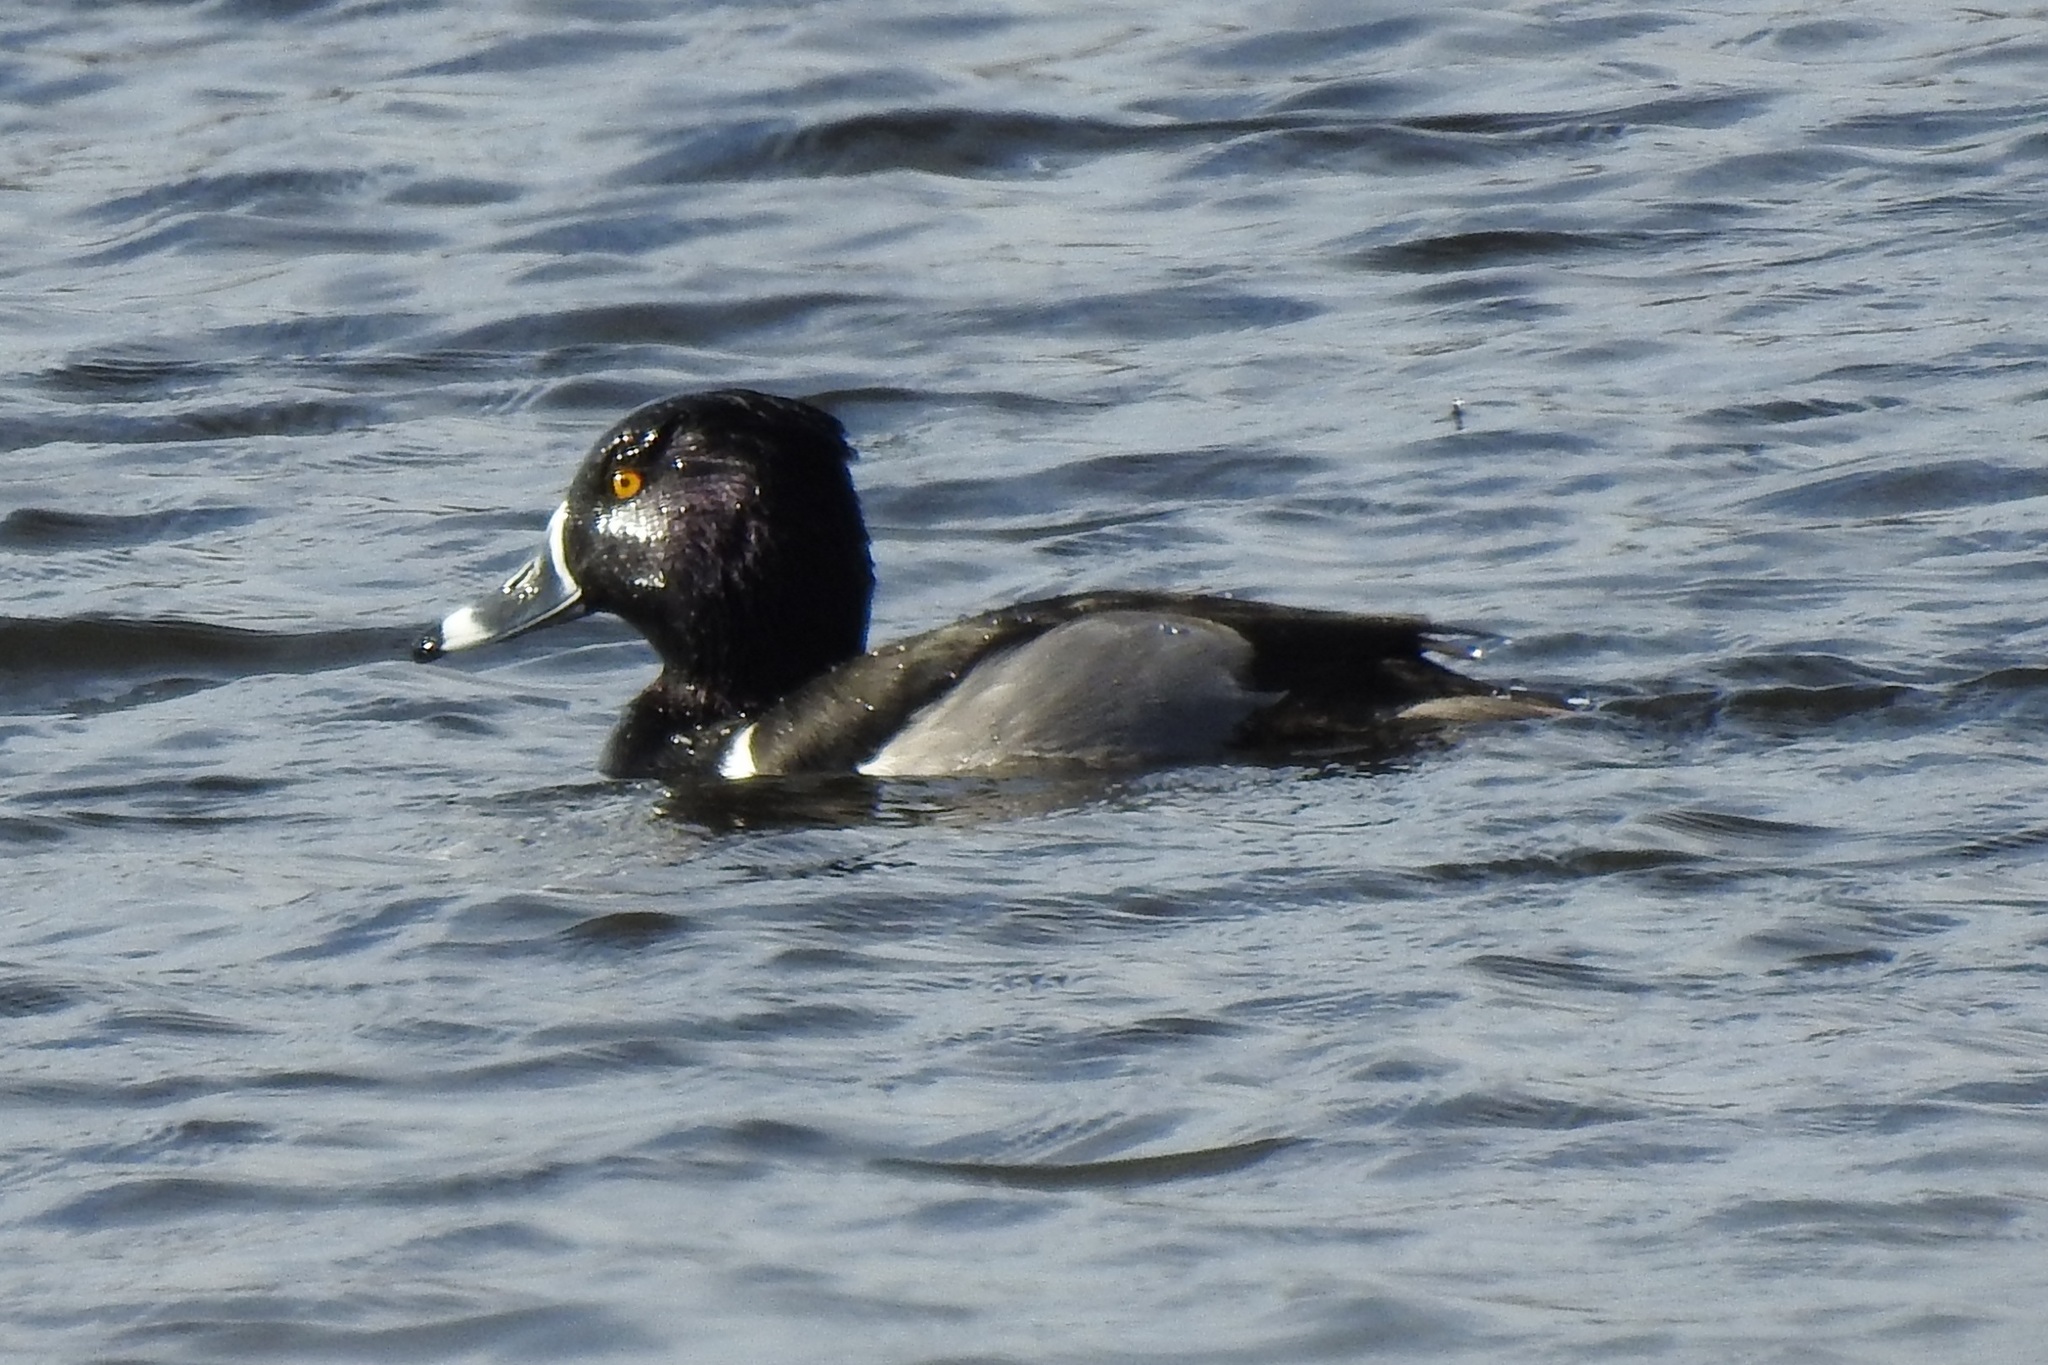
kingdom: Animalia
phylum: Chordata
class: Aves
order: Anseriformes
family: Anatidae
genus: Aythya
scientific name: Aythya collaris
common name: Ring-necked duck
